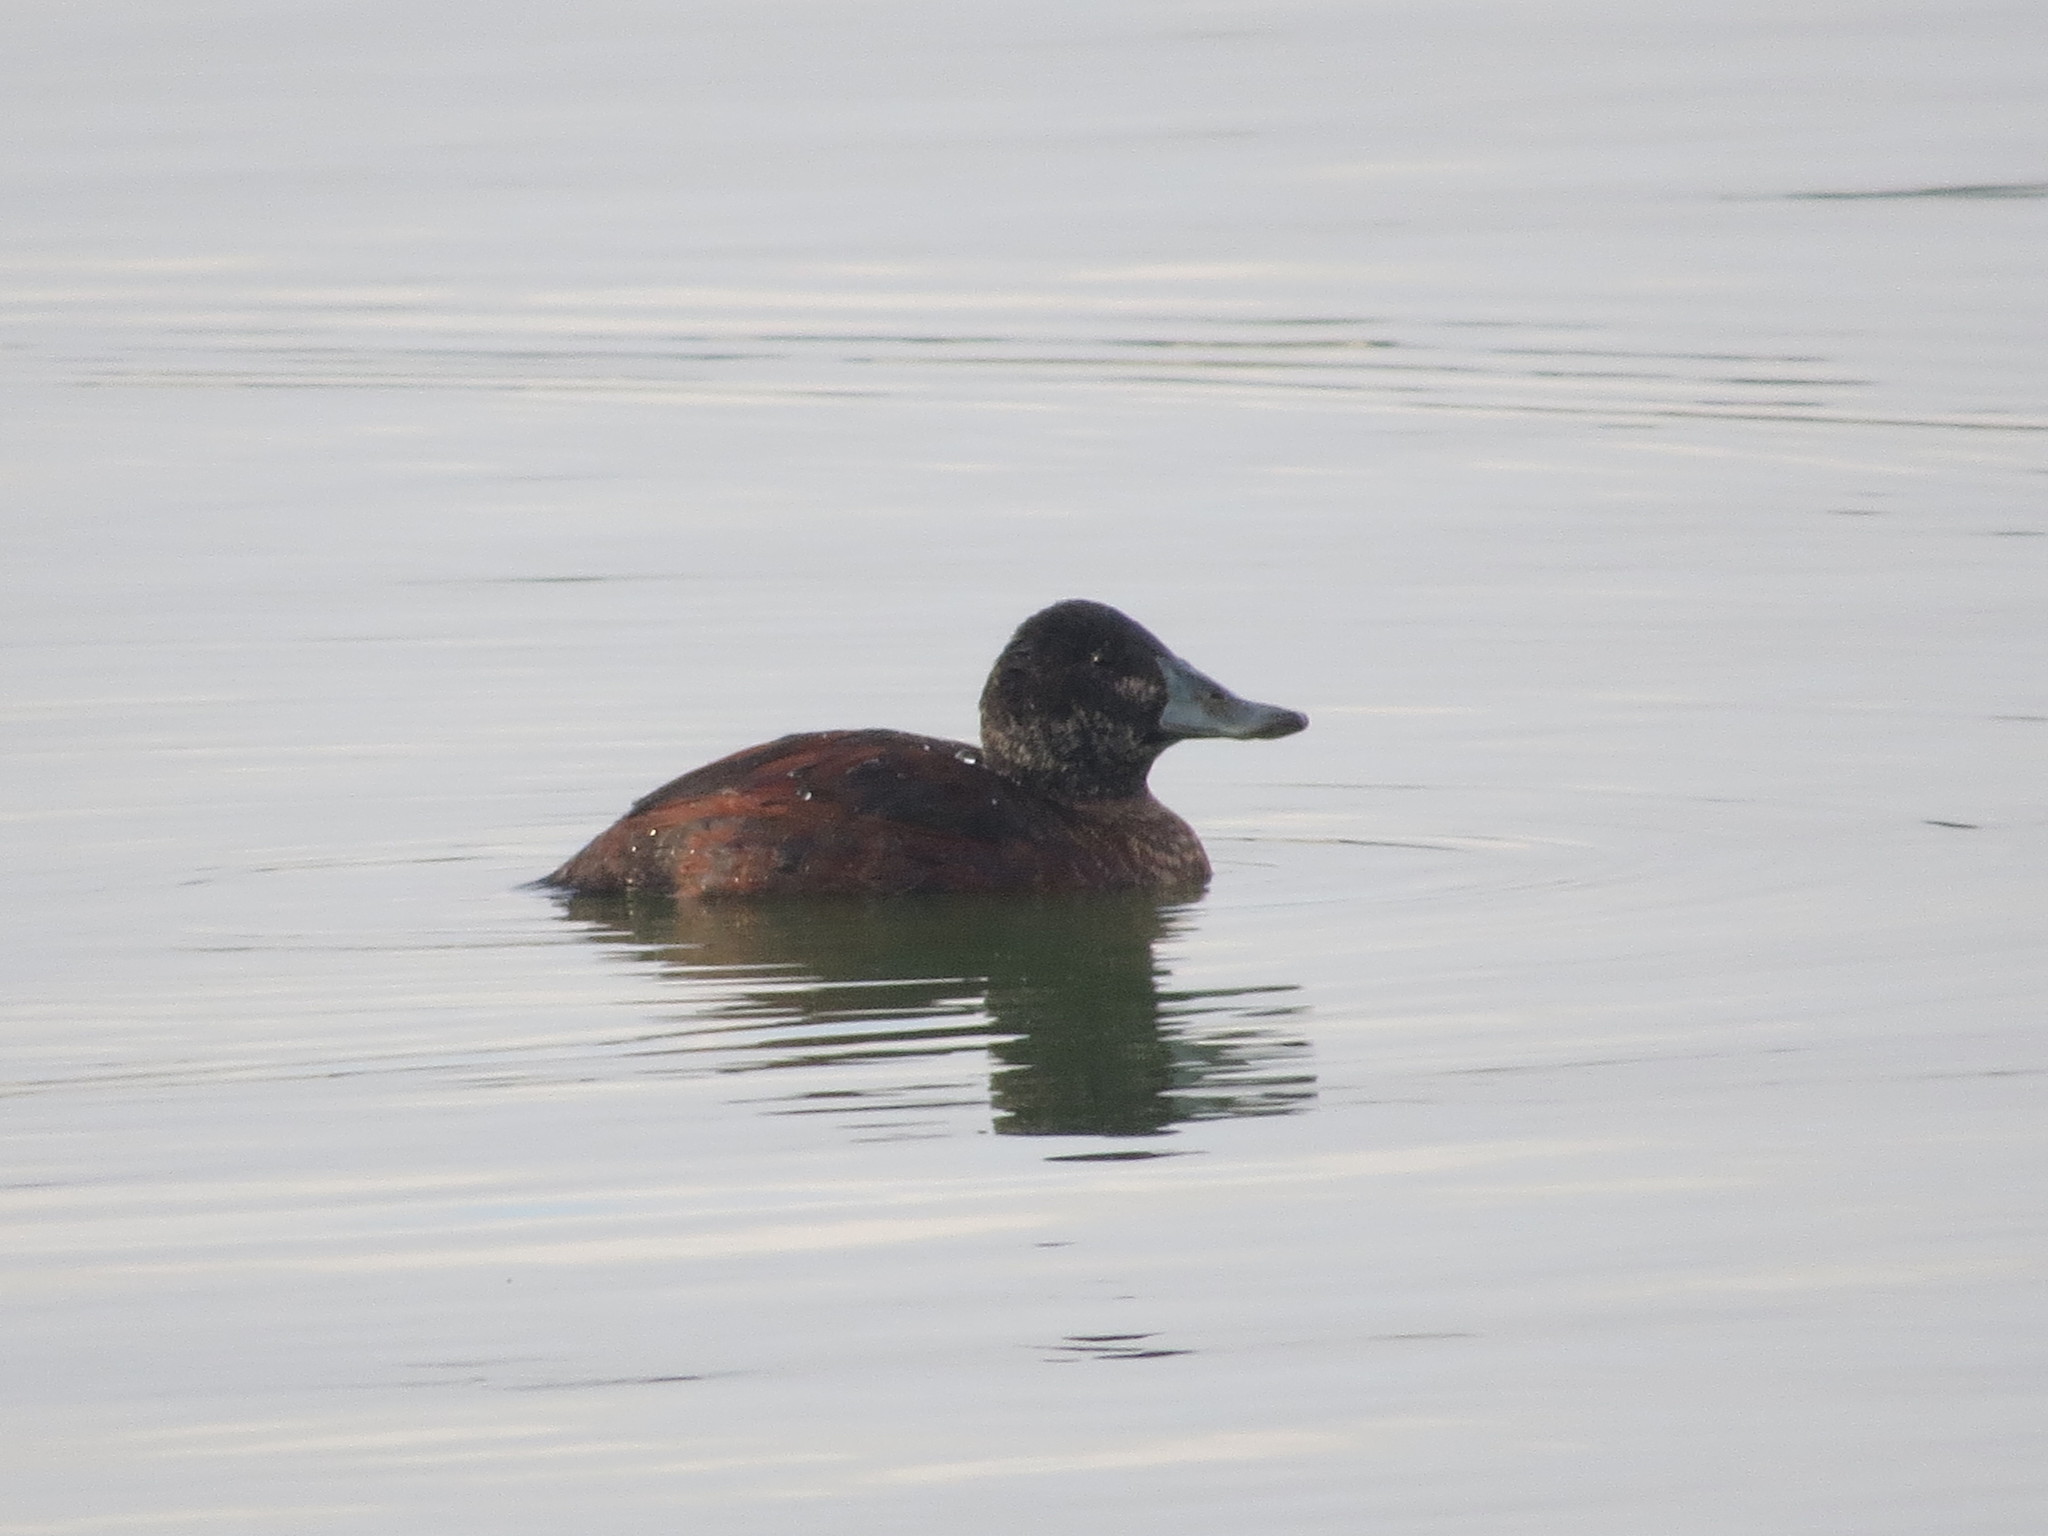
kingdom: Animalia
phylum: Chordata
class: Aves
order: Anseriformes
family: Anatidae
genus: Oxyura
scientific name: Oxyura vittata
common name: Lake duck
